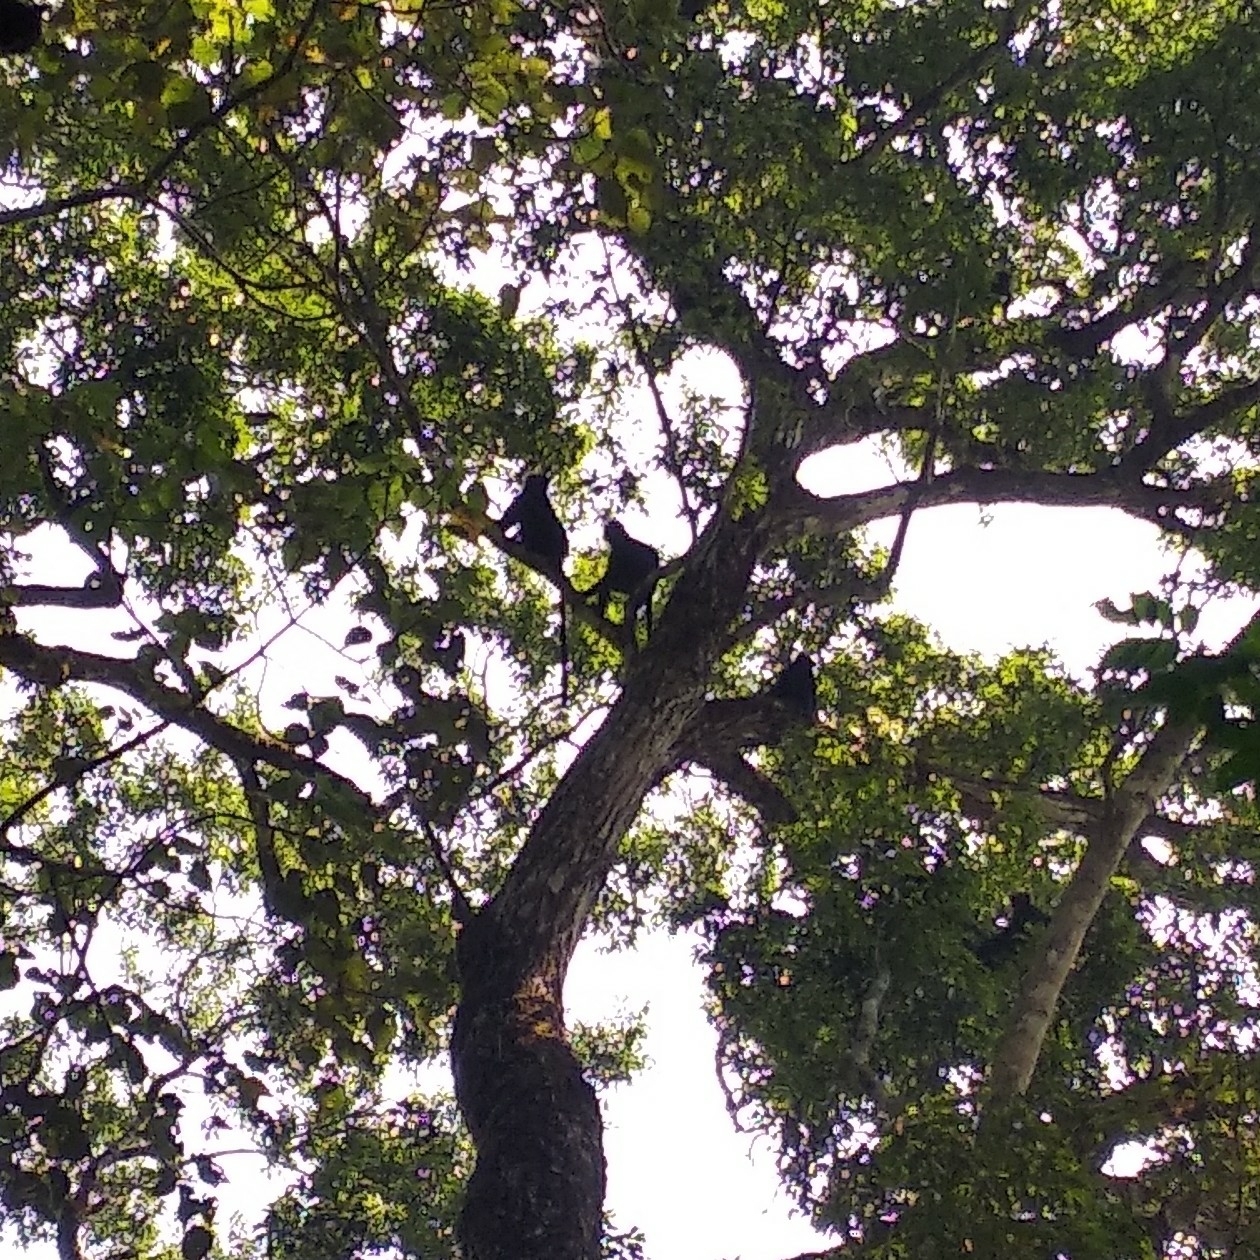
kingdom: Animalia
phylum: Chordata
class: Mammalia
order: Primates
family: Cercopithecidae
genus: Semnopithecus
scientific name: Semnopithecus johnii
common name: Nilgiri langur
